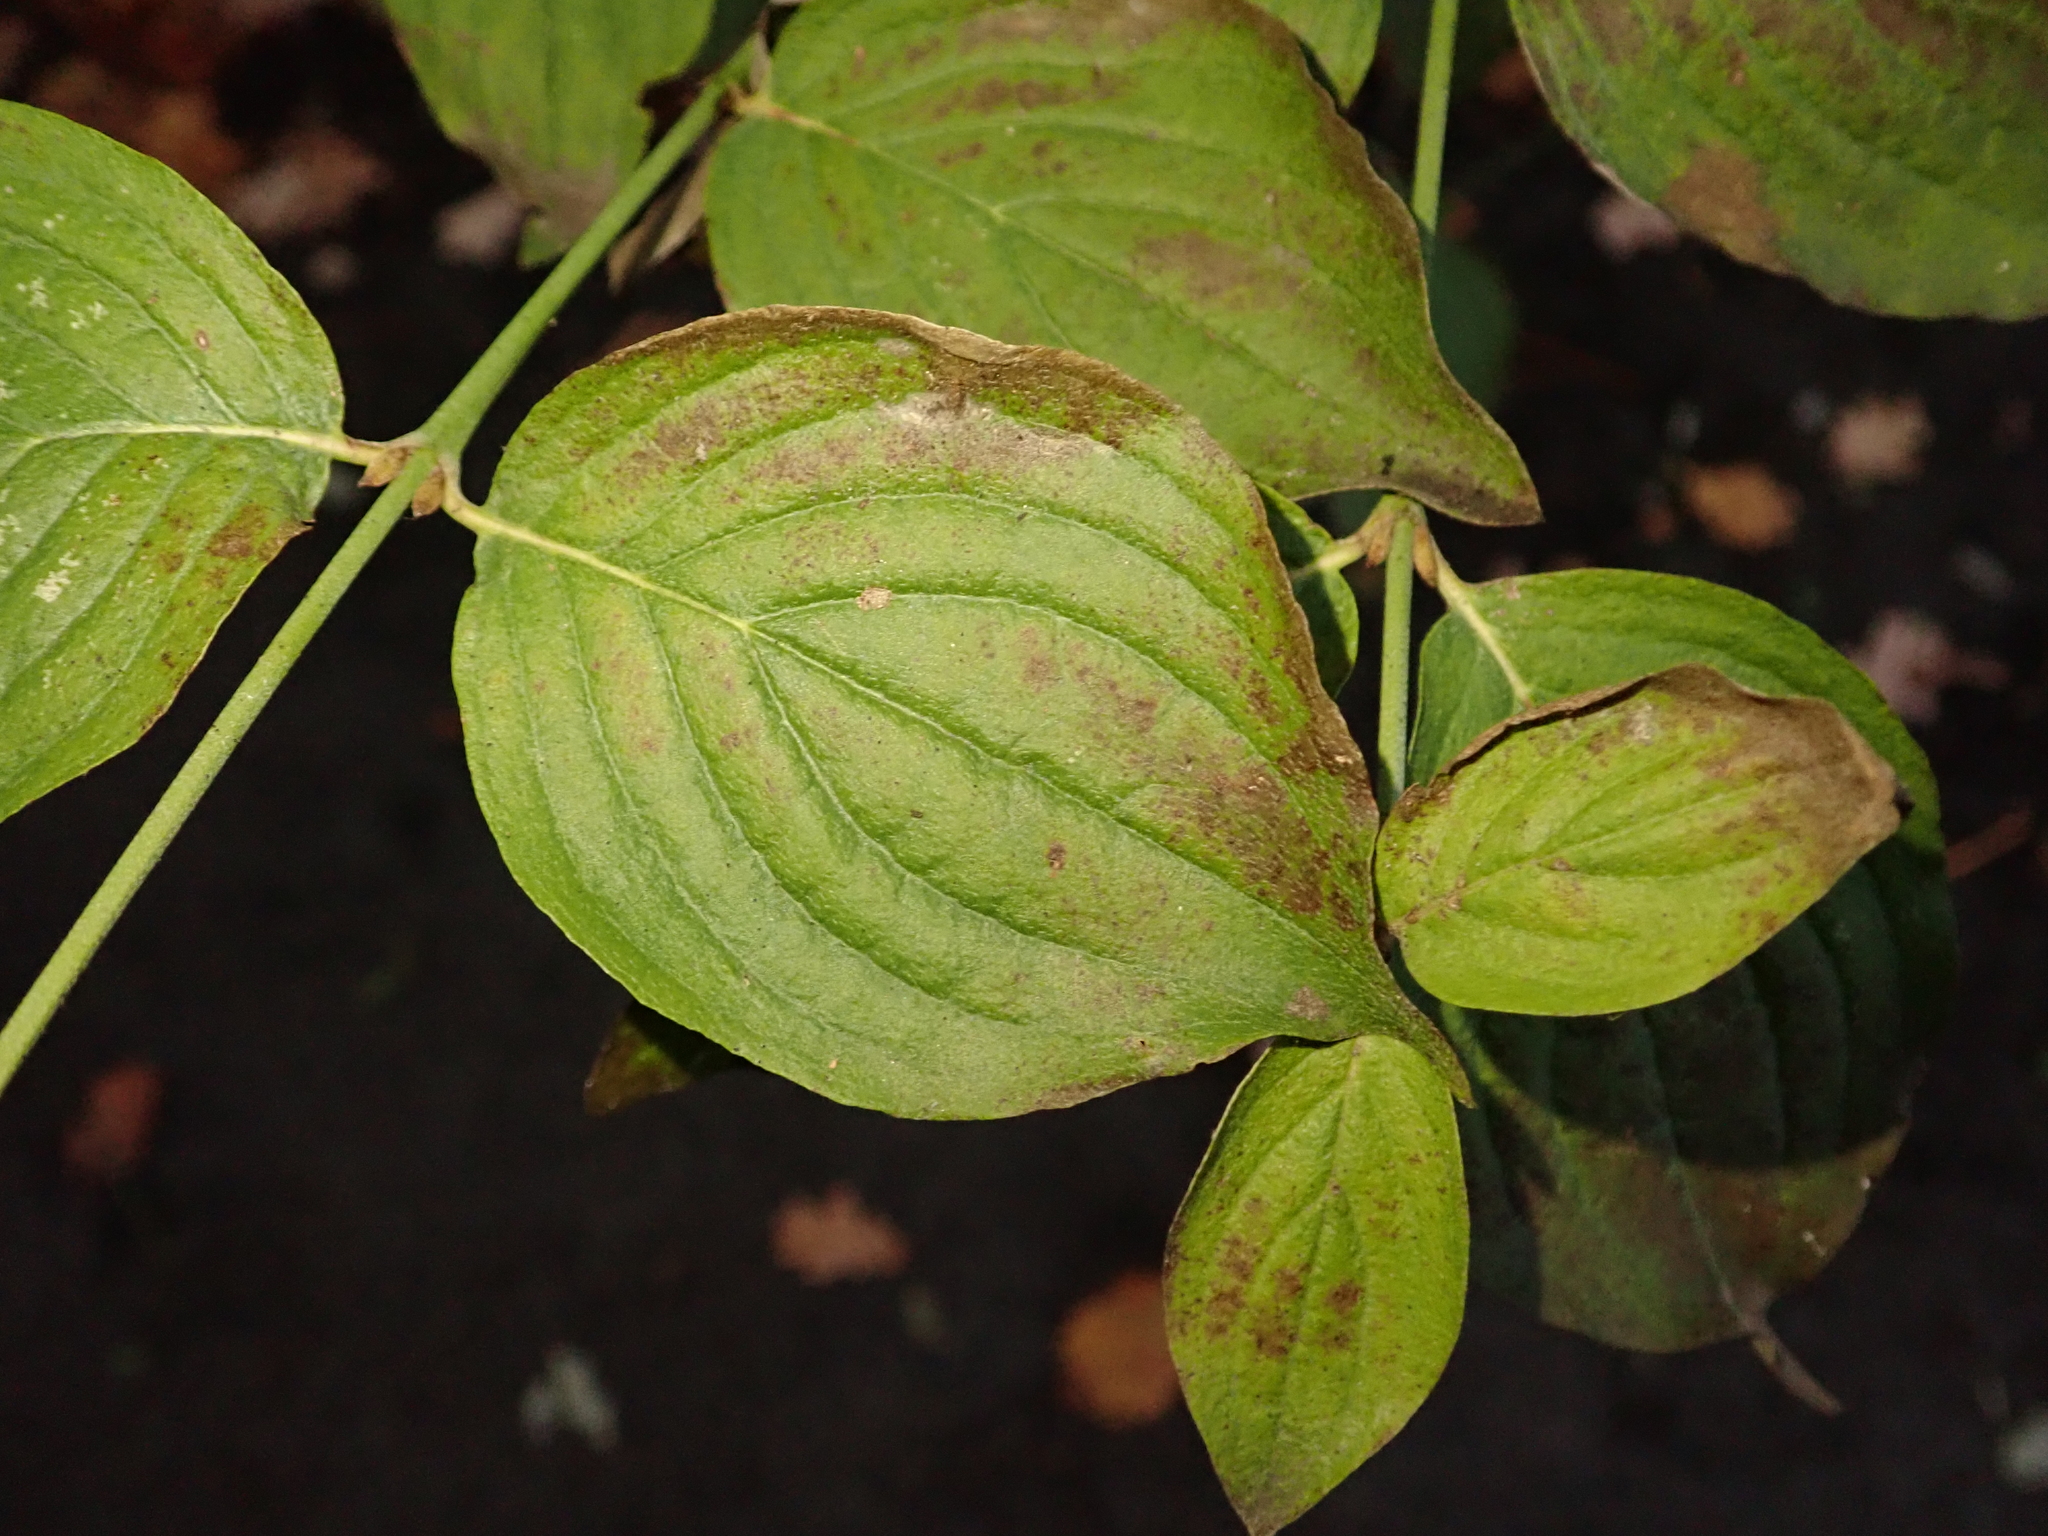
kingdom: Plantae
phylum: Tracheophyta
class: Magnoliopsida
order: Cornales
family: Cornaceae
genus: Cornus
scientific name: Cornus sanguinea
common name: Dogwood
